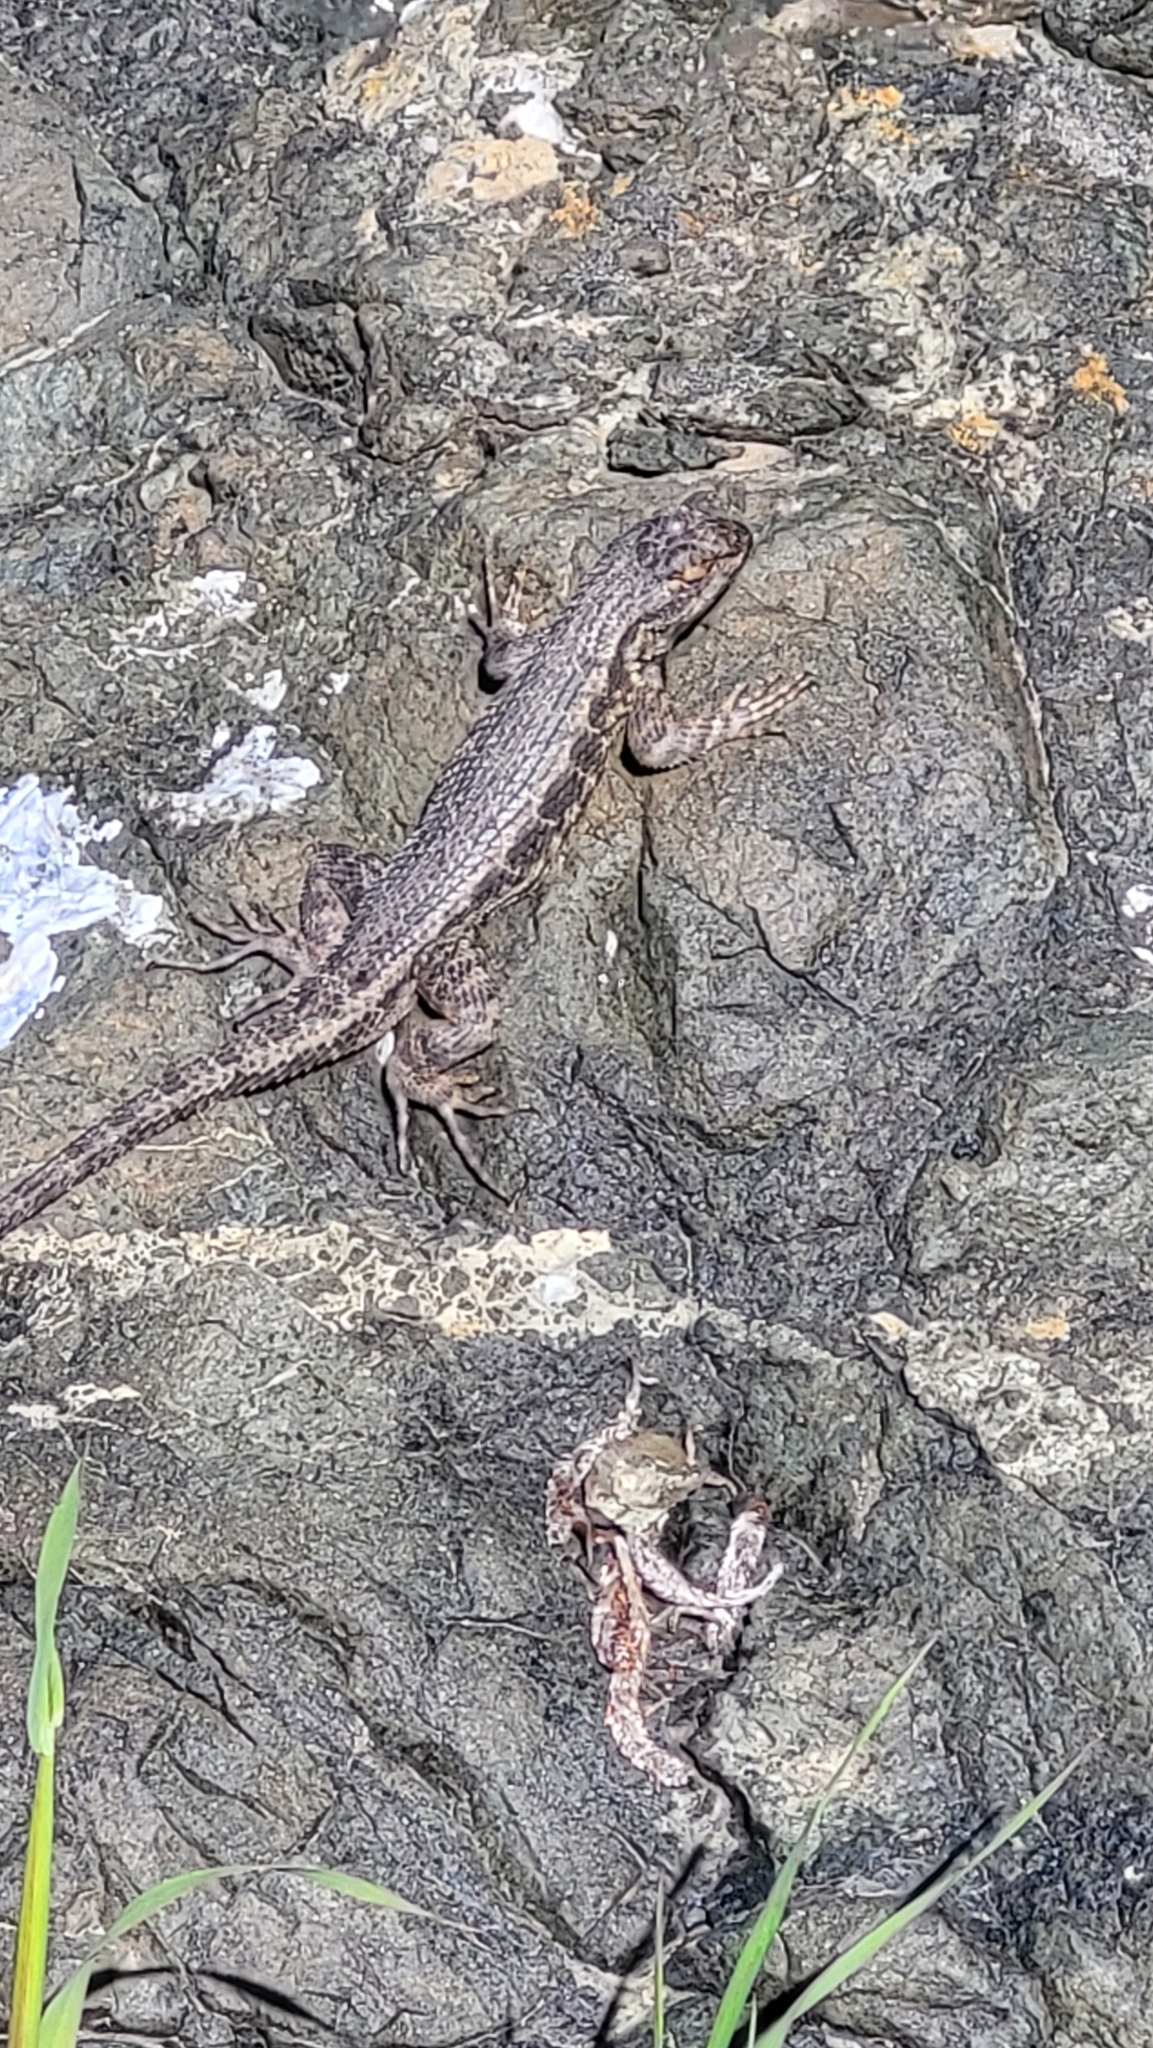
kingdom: Animalia
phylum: Chordata
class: Squamata
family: Phrynosomatidae
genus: Sceloporus
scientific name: Sceloporus occidentalis
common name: Western fence lizard
